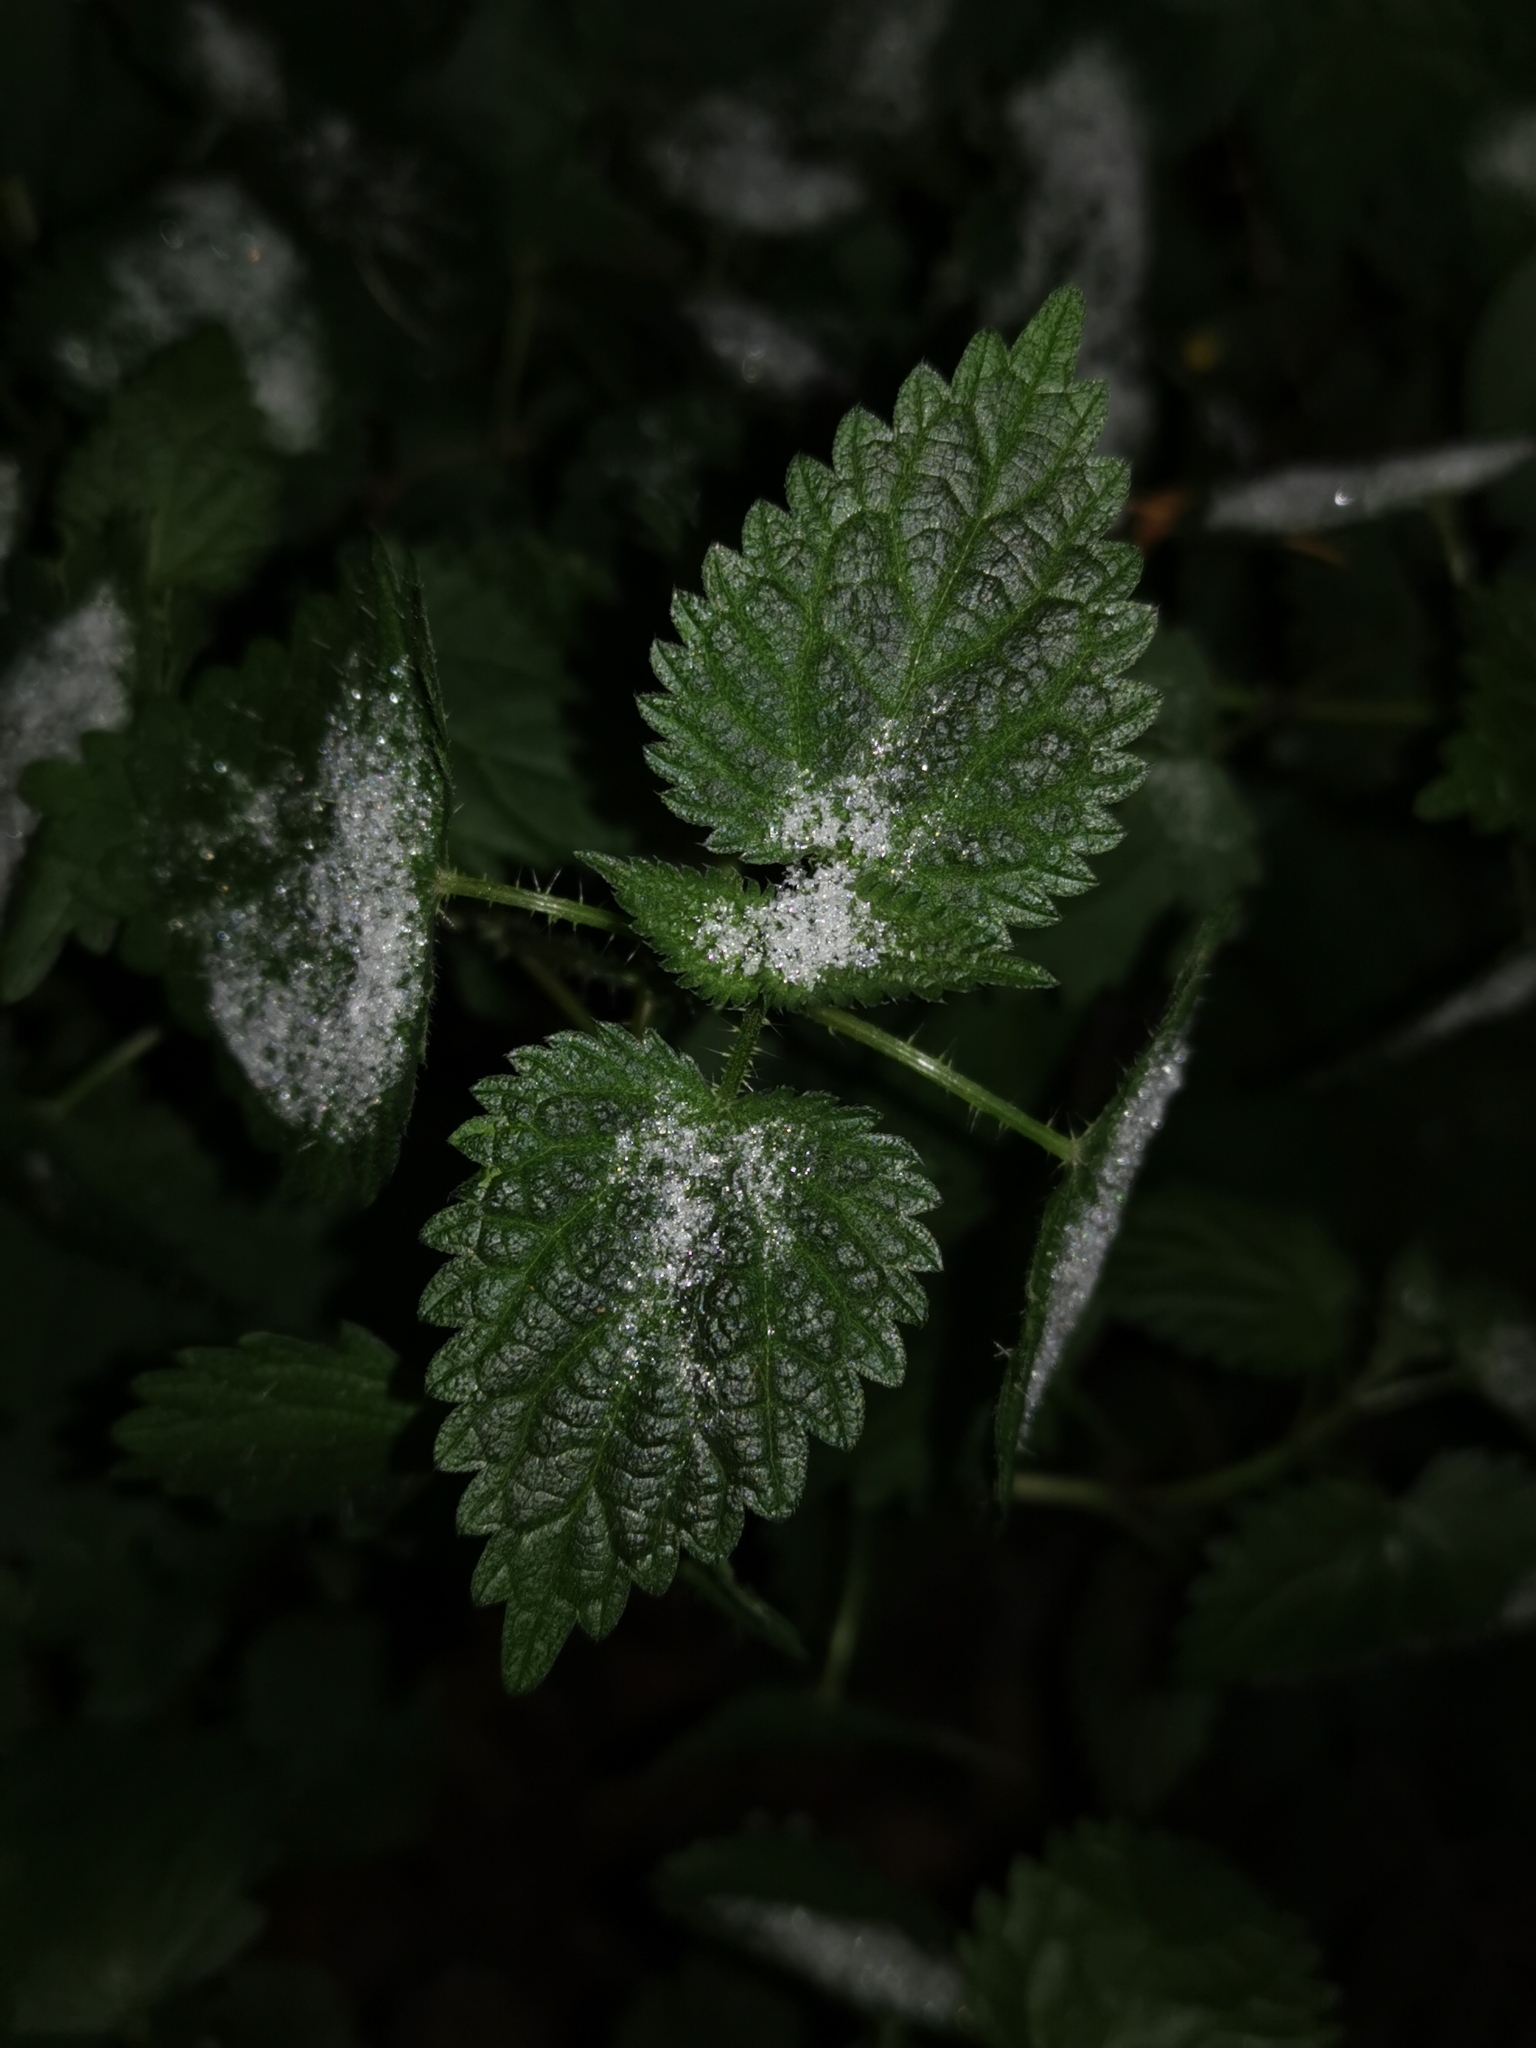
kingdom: Plantae
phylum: Tracheophyta
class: Magnoliopsida
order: Rosales
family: Urticaceae
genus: Urtica
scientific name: Urtica dioica
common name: Common nettle
